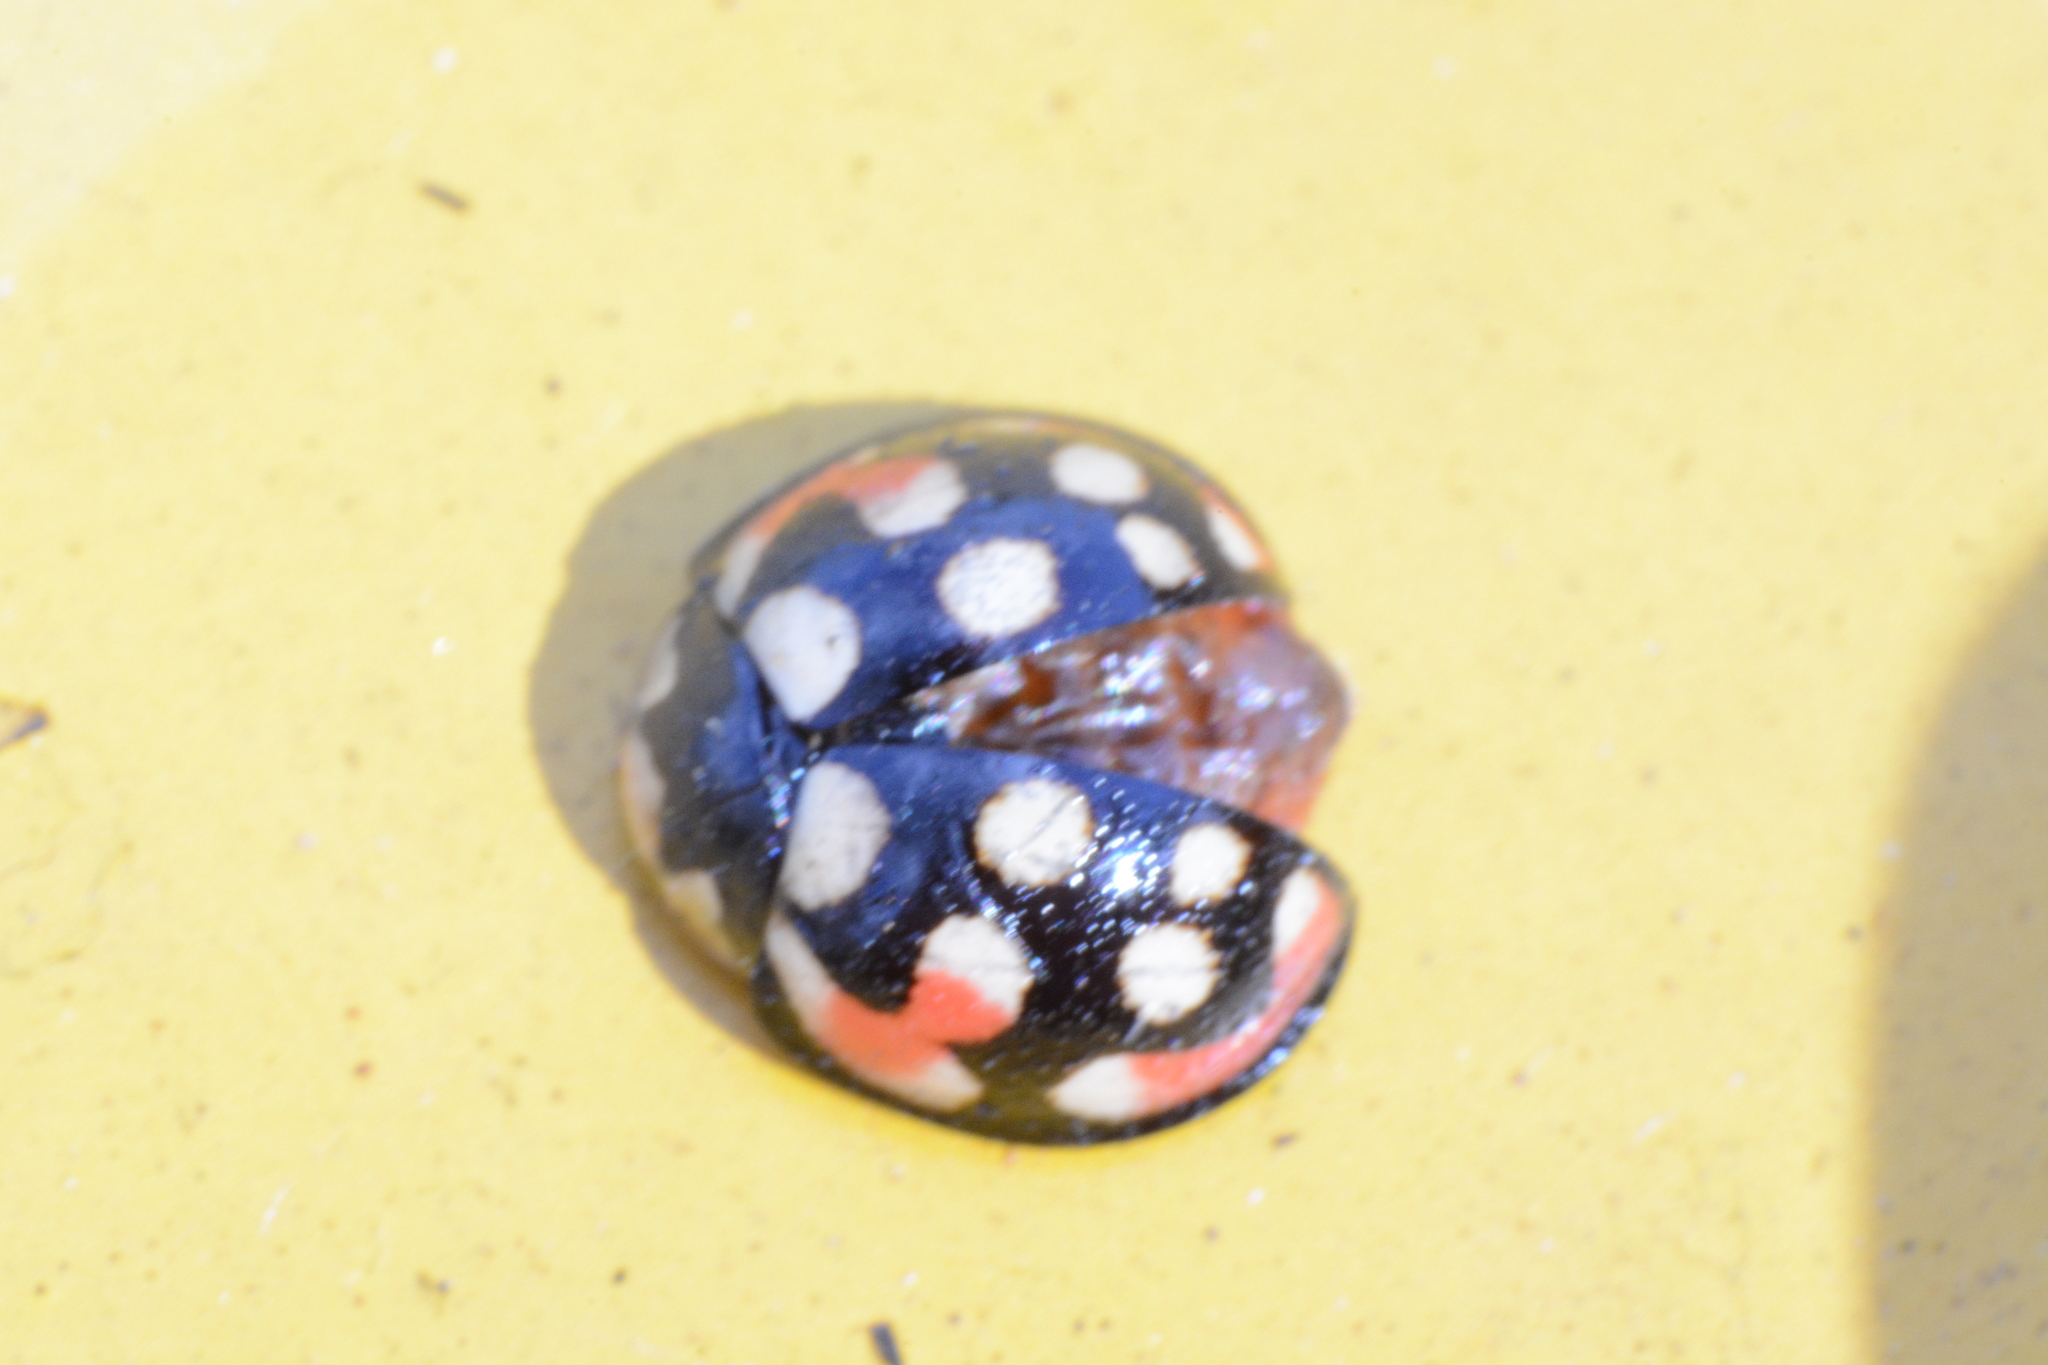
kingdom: Animalia
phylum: Arthropoda
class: Insecta
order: Coleoptera
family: Coccinellidae
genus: Cheilomenes
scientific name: Cheilomenes sulphurea
